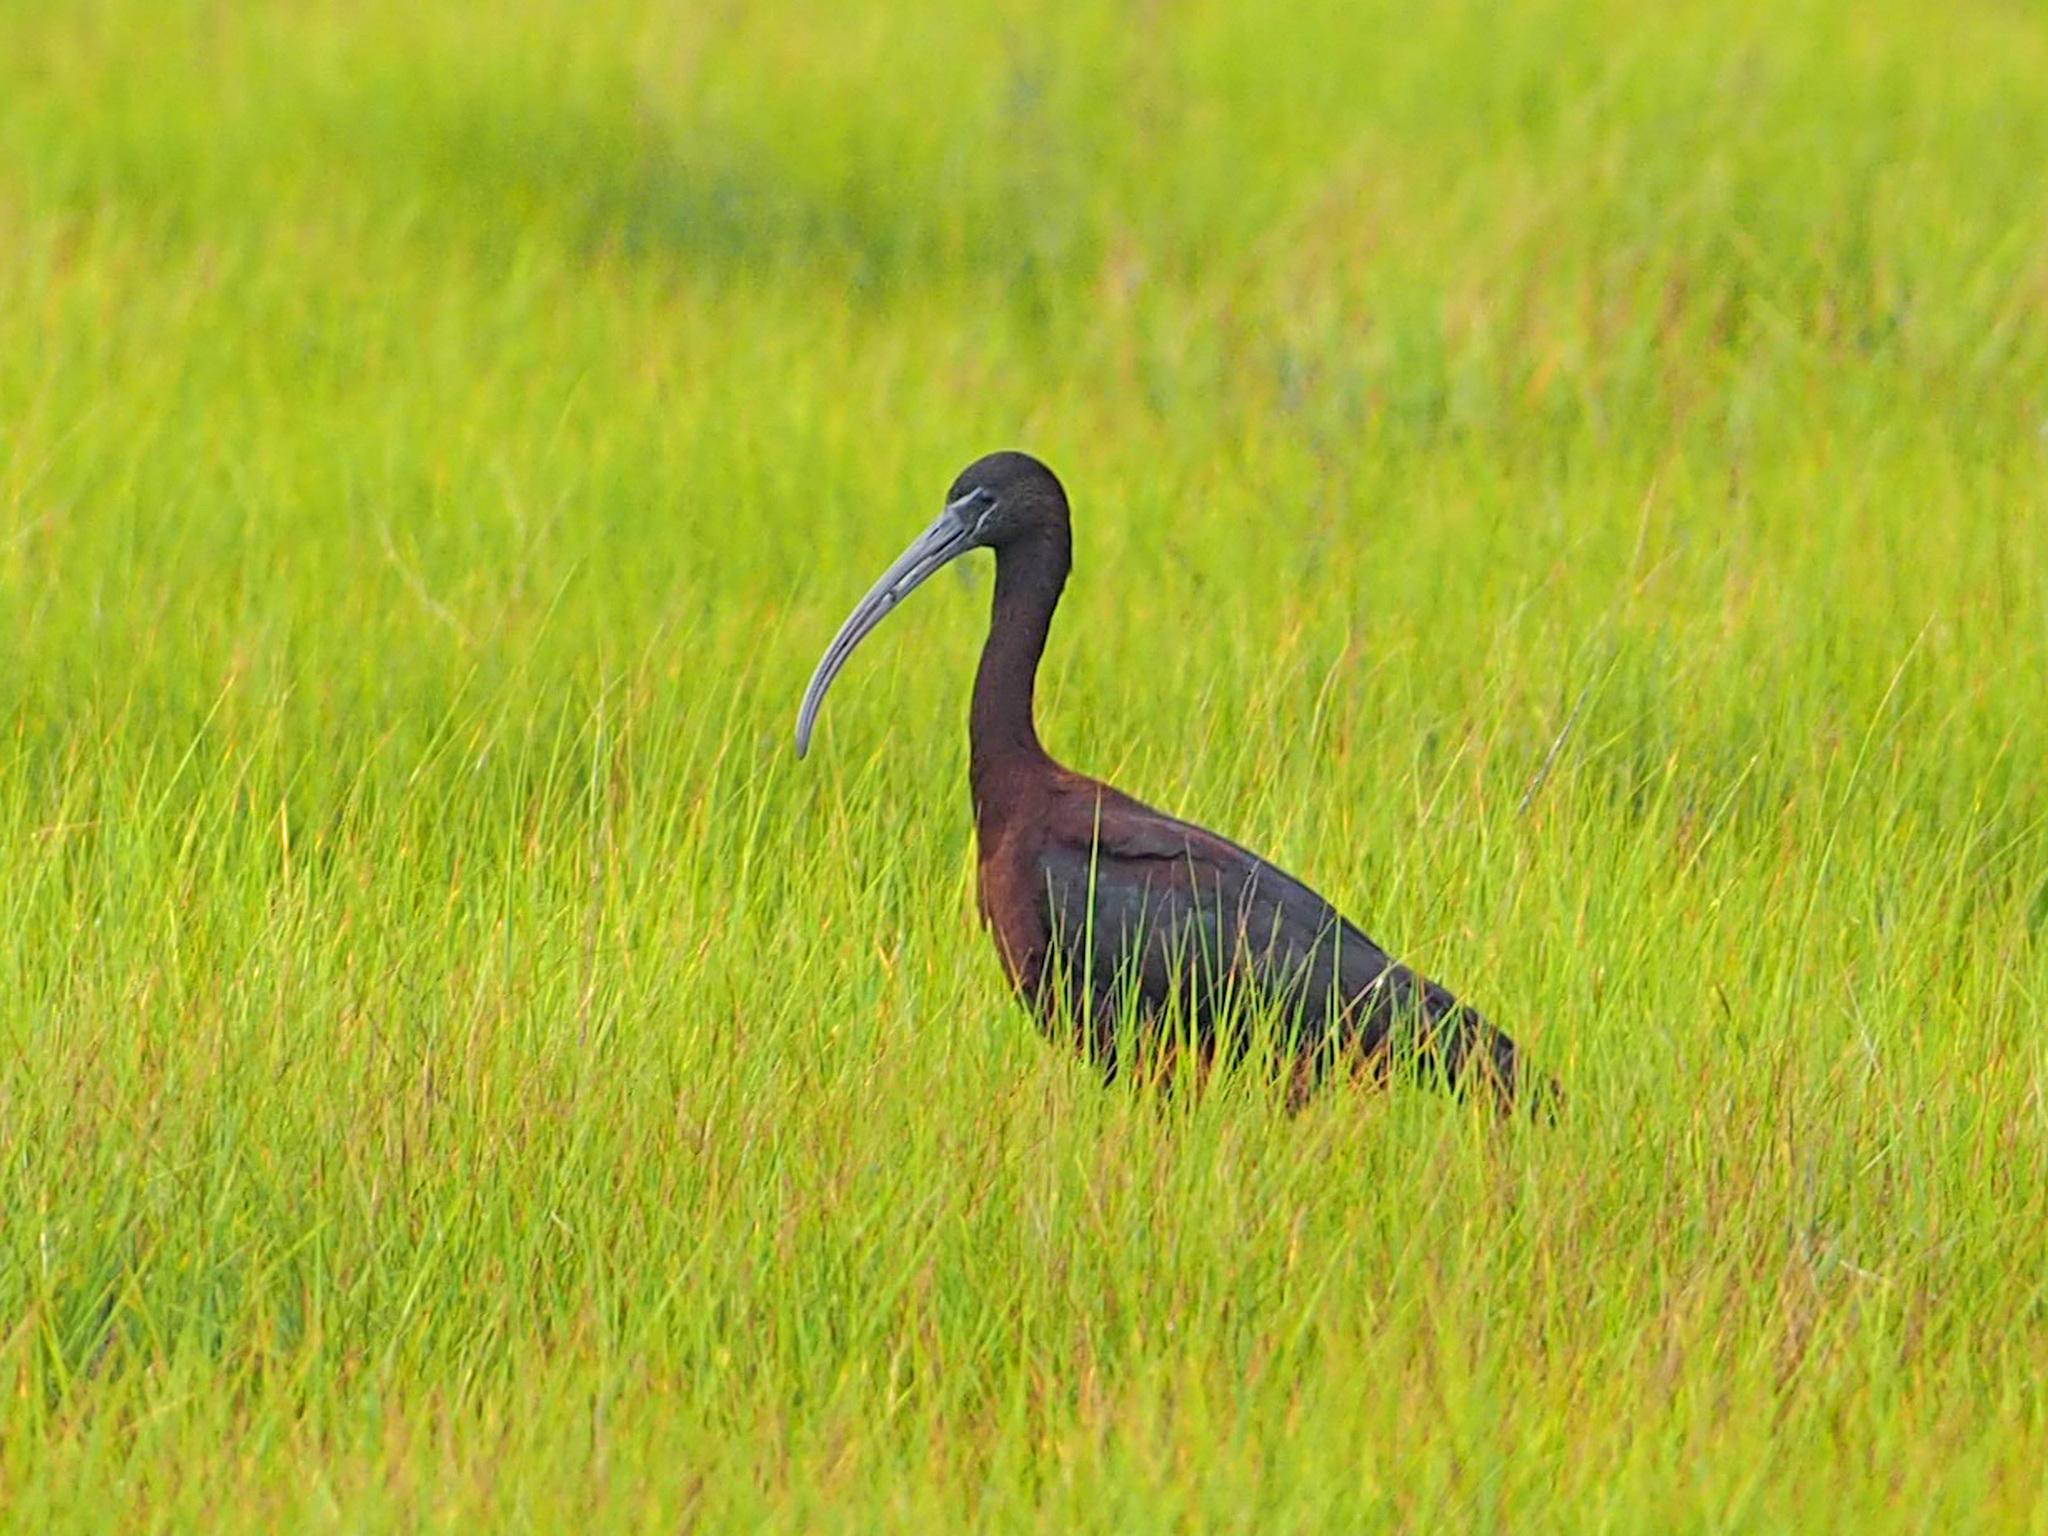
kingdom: Animalia
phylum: Chordata
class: Aves
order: Pelecaniformes
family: Threskiornithidae
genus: Plegadis
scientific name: Plegadis falcinellus
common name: Glossy ibis
